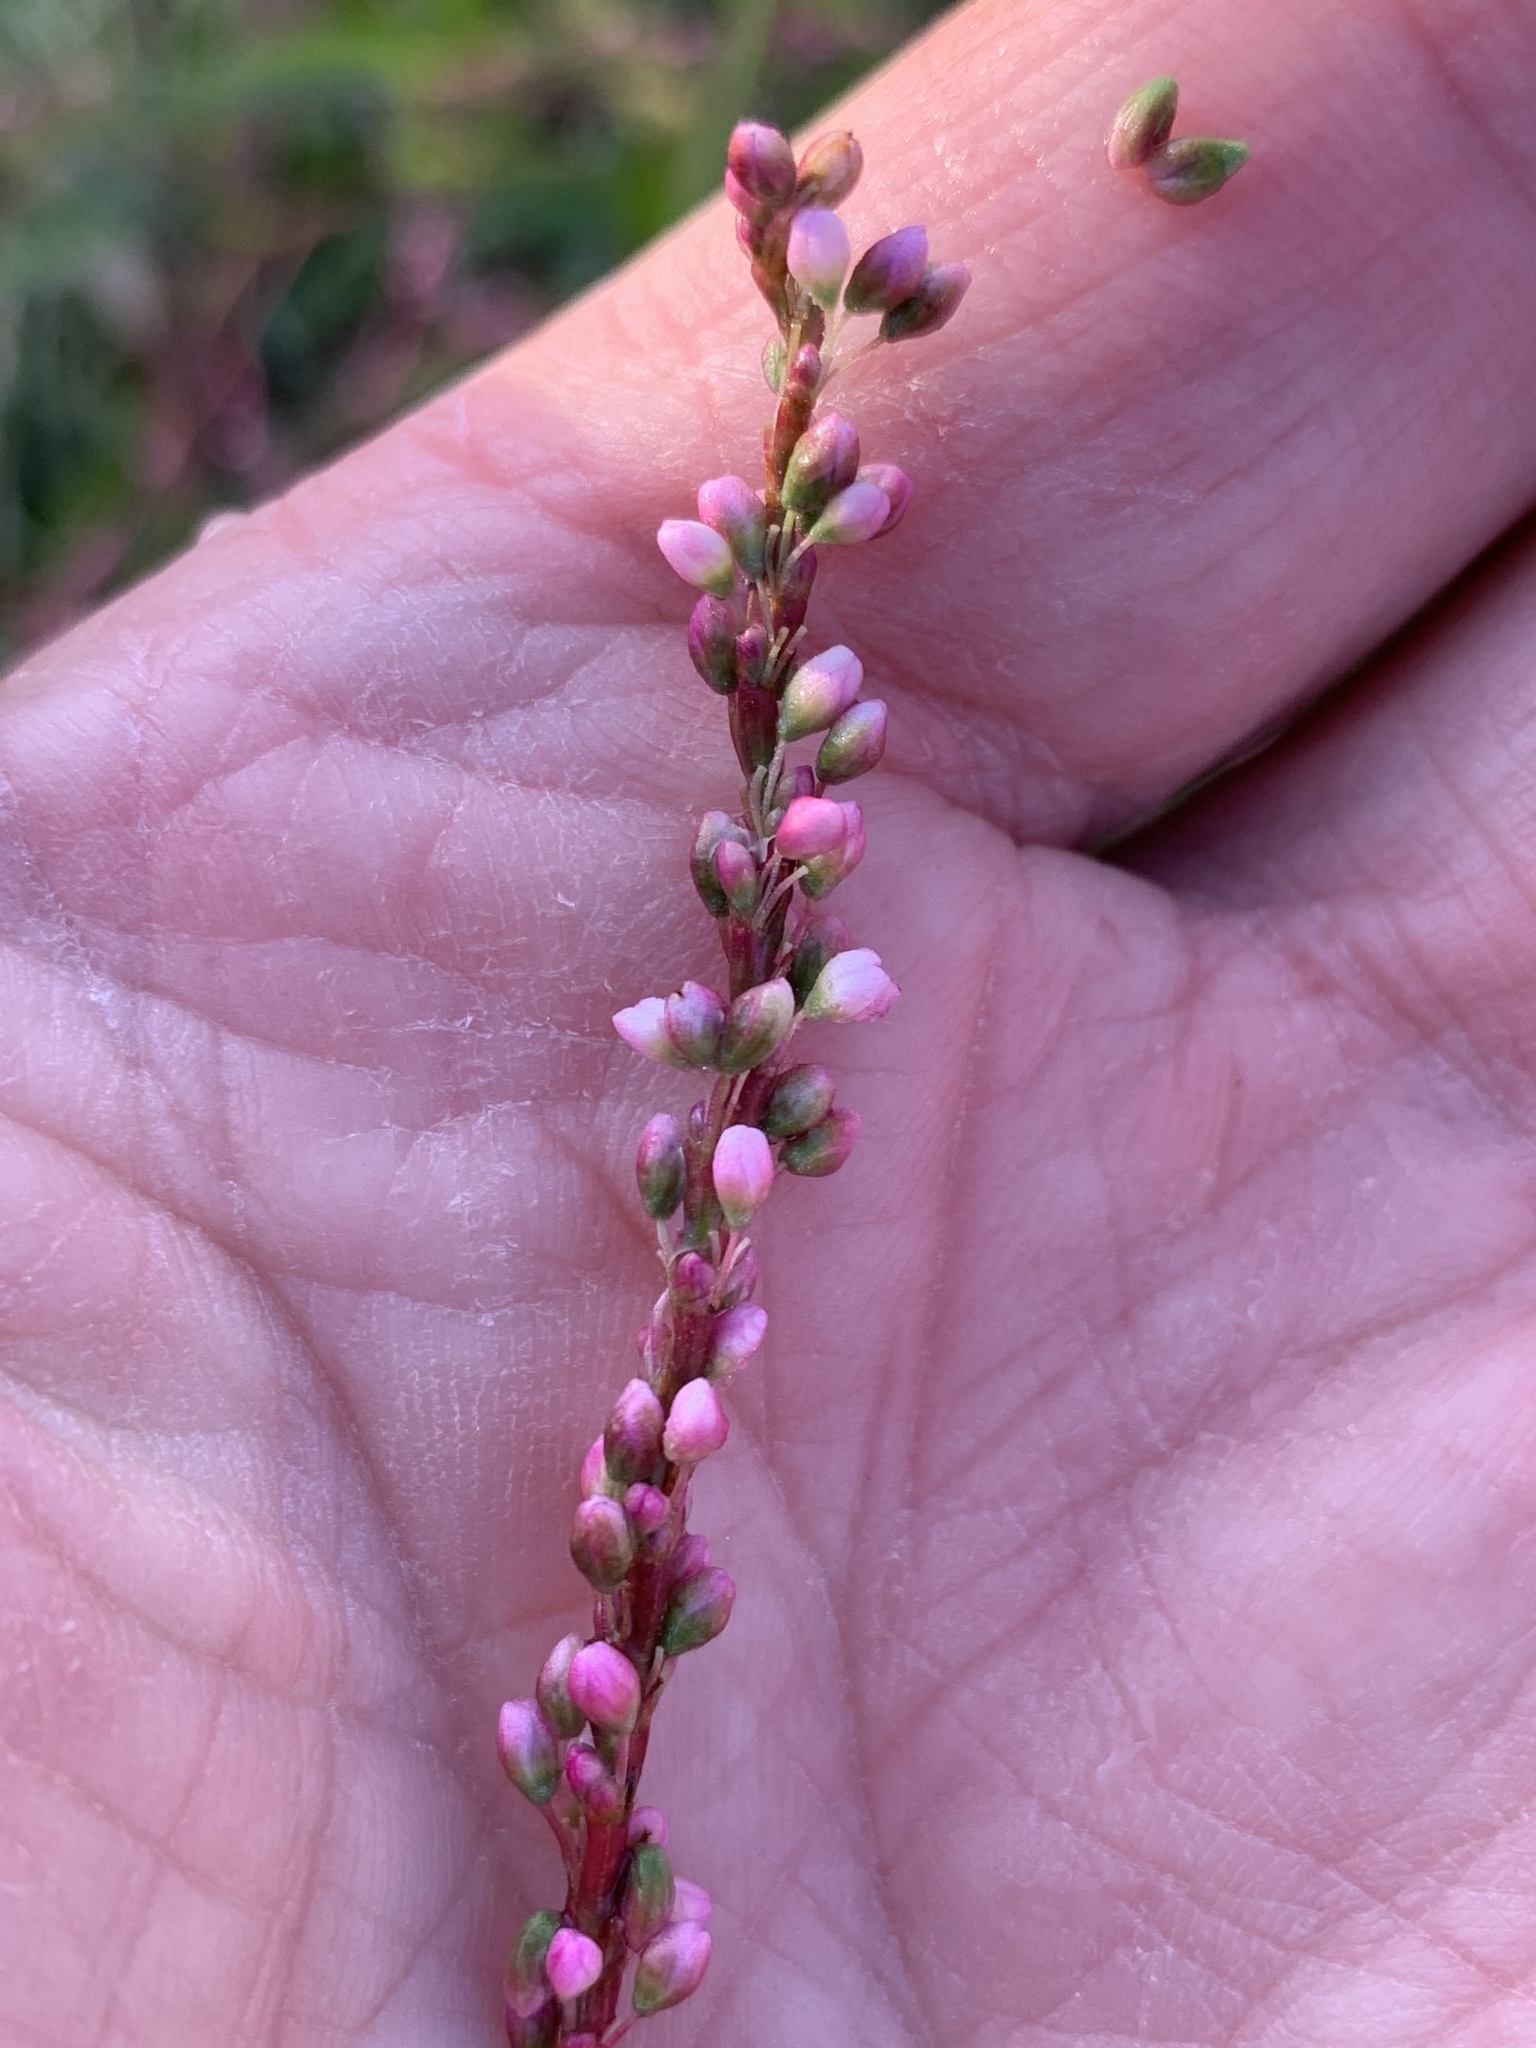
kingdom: Plantae
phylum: Tracheophyta
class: Magnoliopsida
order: Caryophyllales
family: Polygonaceae
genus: Persicaria
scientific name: Persicaria decipiens
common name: Willow-weed
